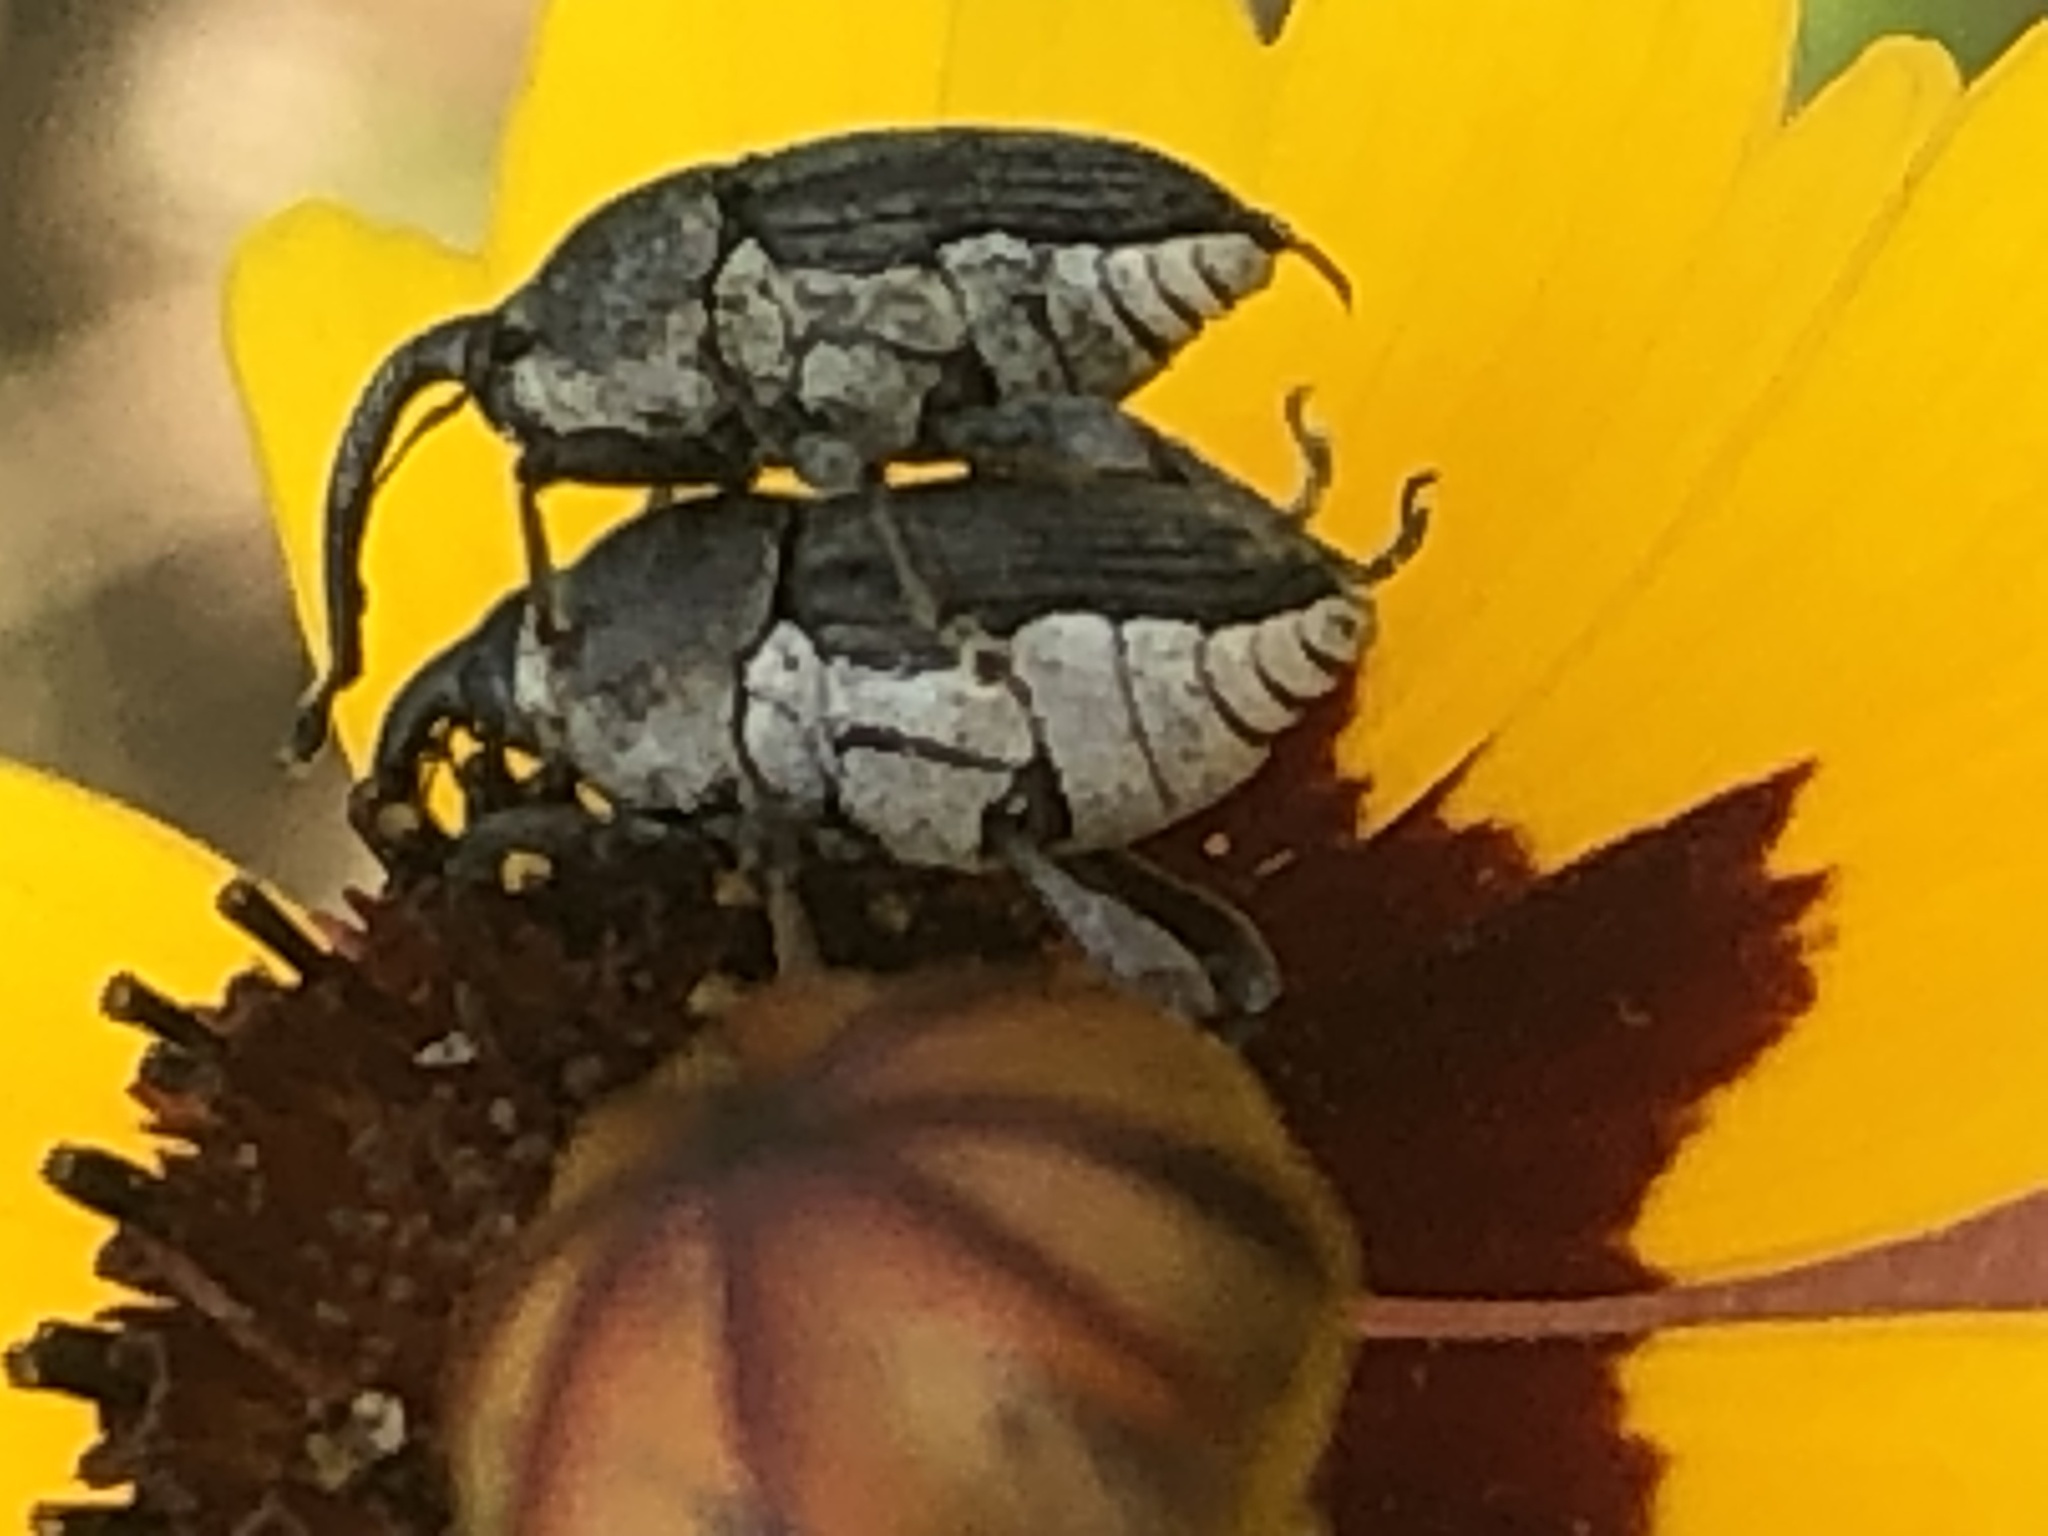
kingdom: Animalia
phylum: Arthropoda
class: Insecta
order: Coleoptera
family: Curculionidae
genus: Odontocorynus
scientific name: Odontocorynus salebrosus
